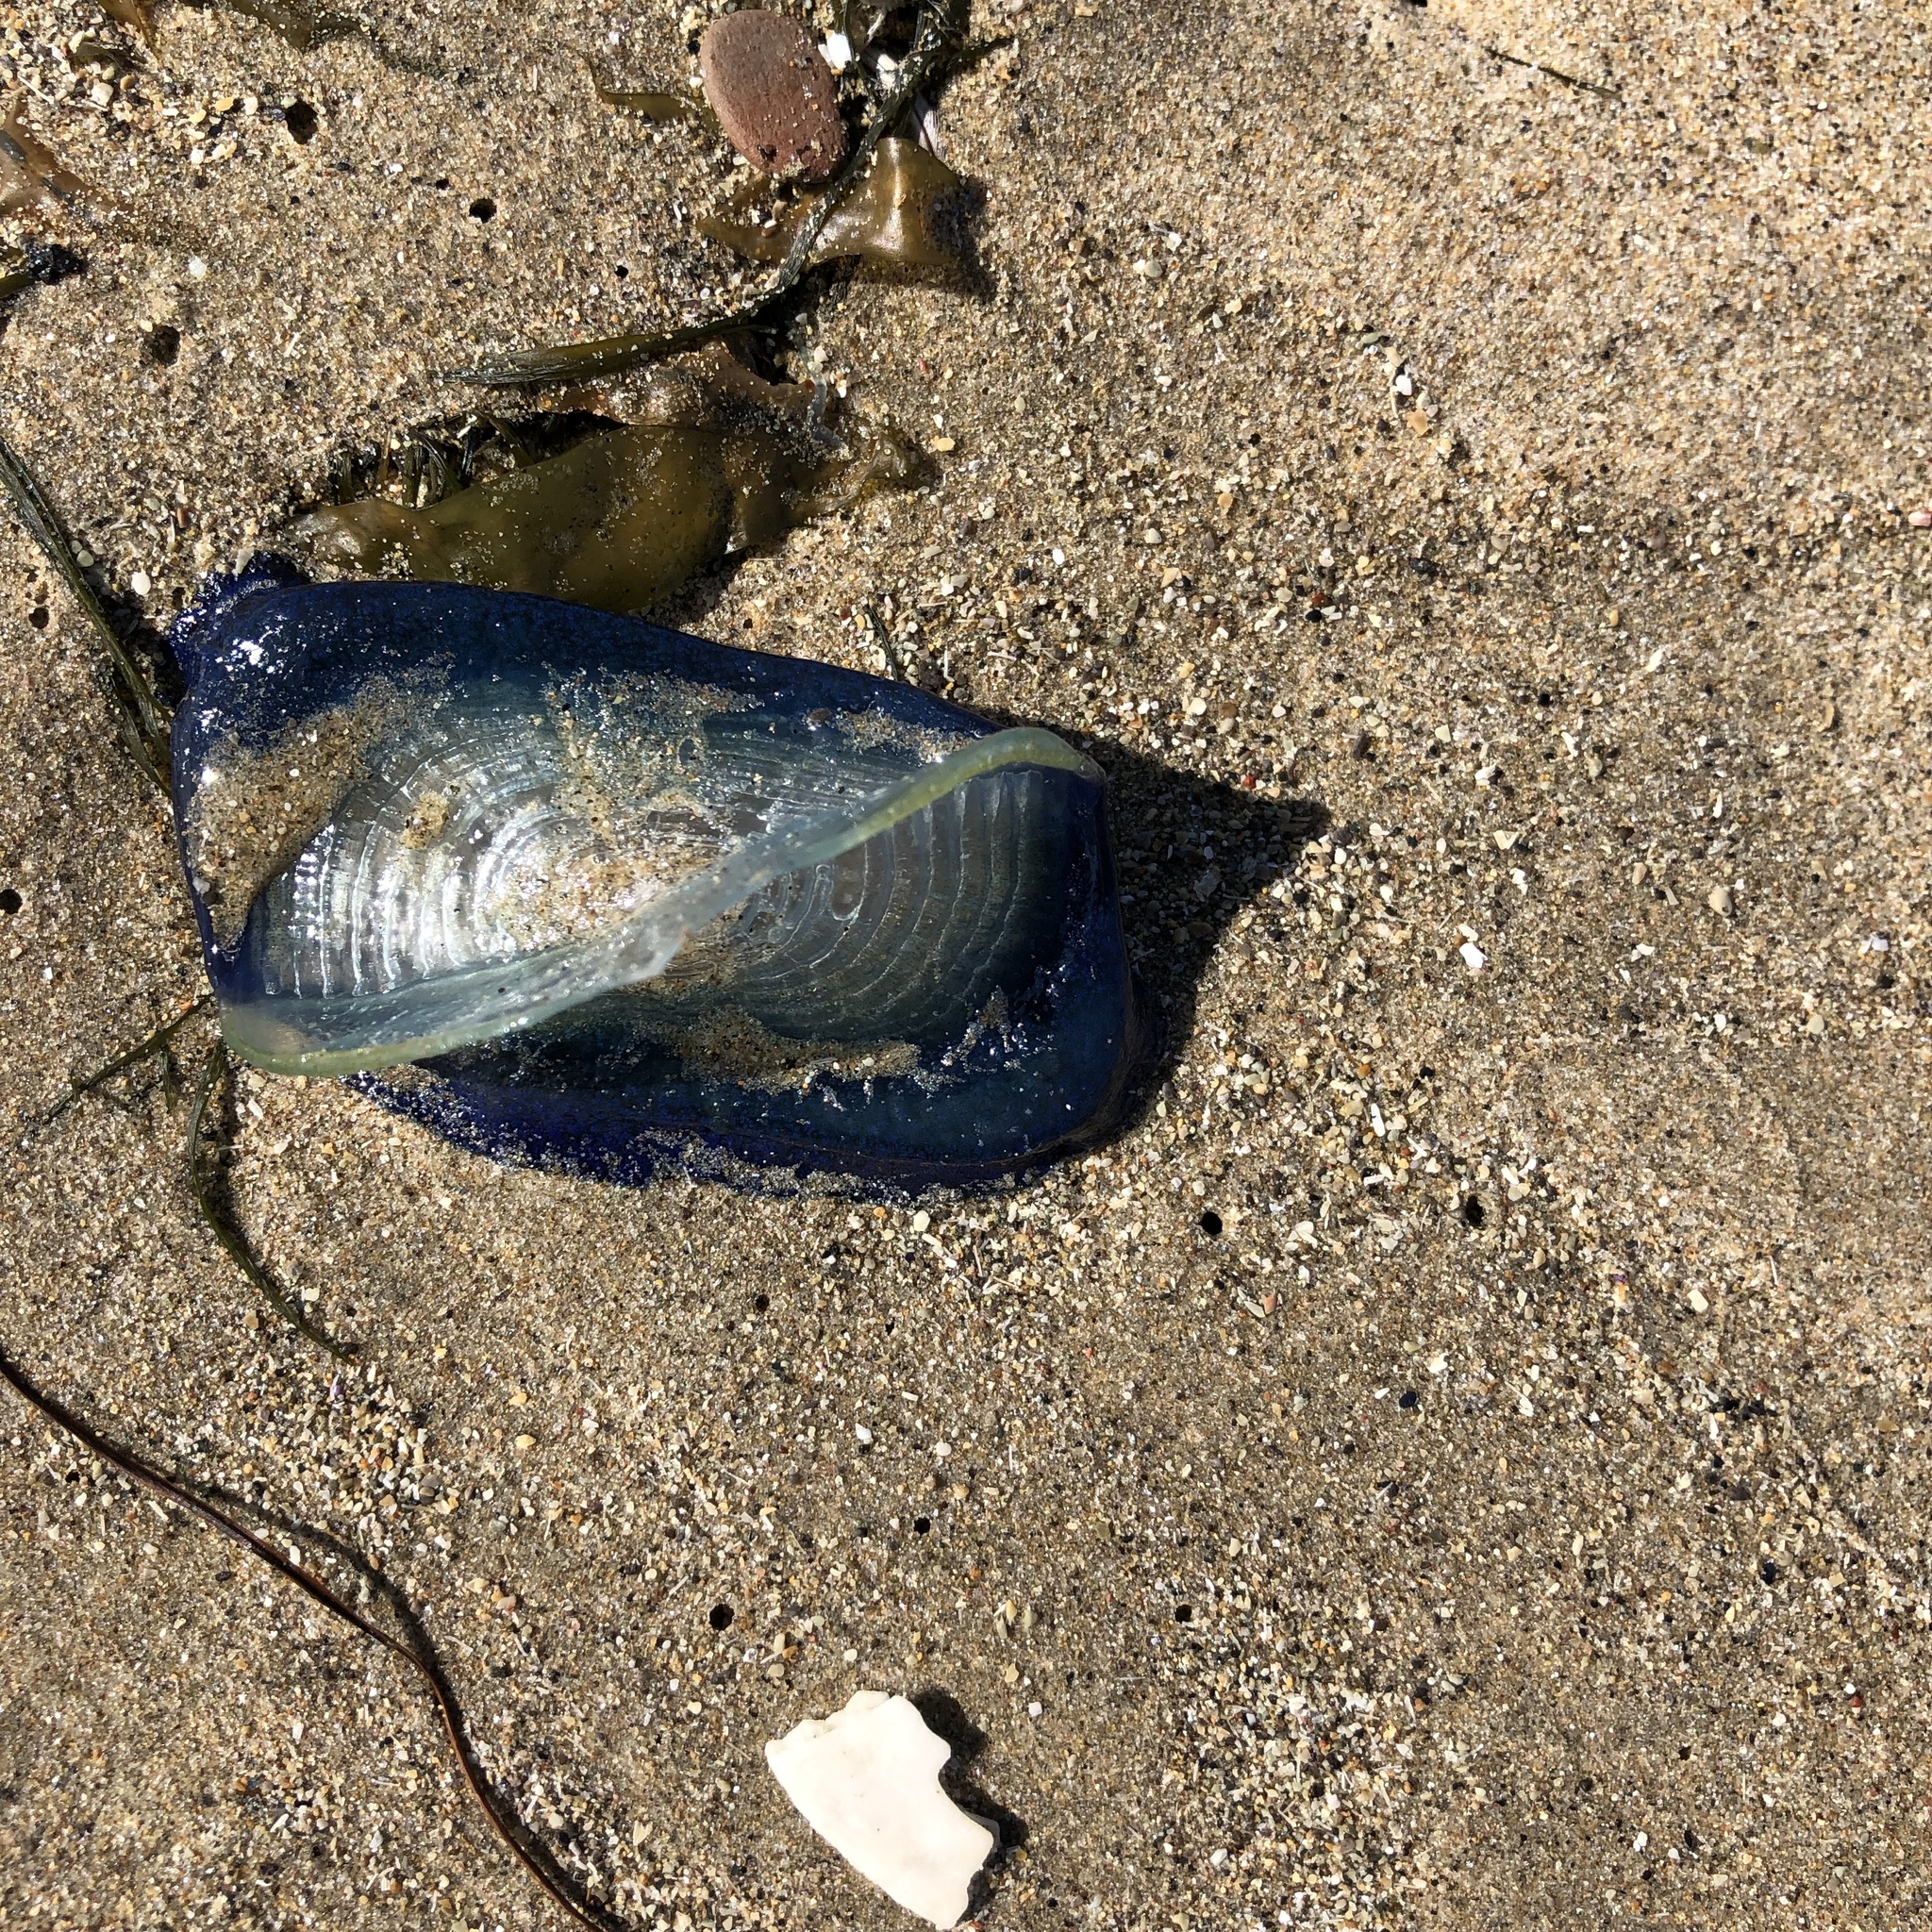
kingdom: Animalia
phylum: Cnidaria
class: Hydrozoa
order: Anthoathecata
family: Porpitidae
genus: Velella
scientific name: Velella velella
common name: By-the-wind-sailor
